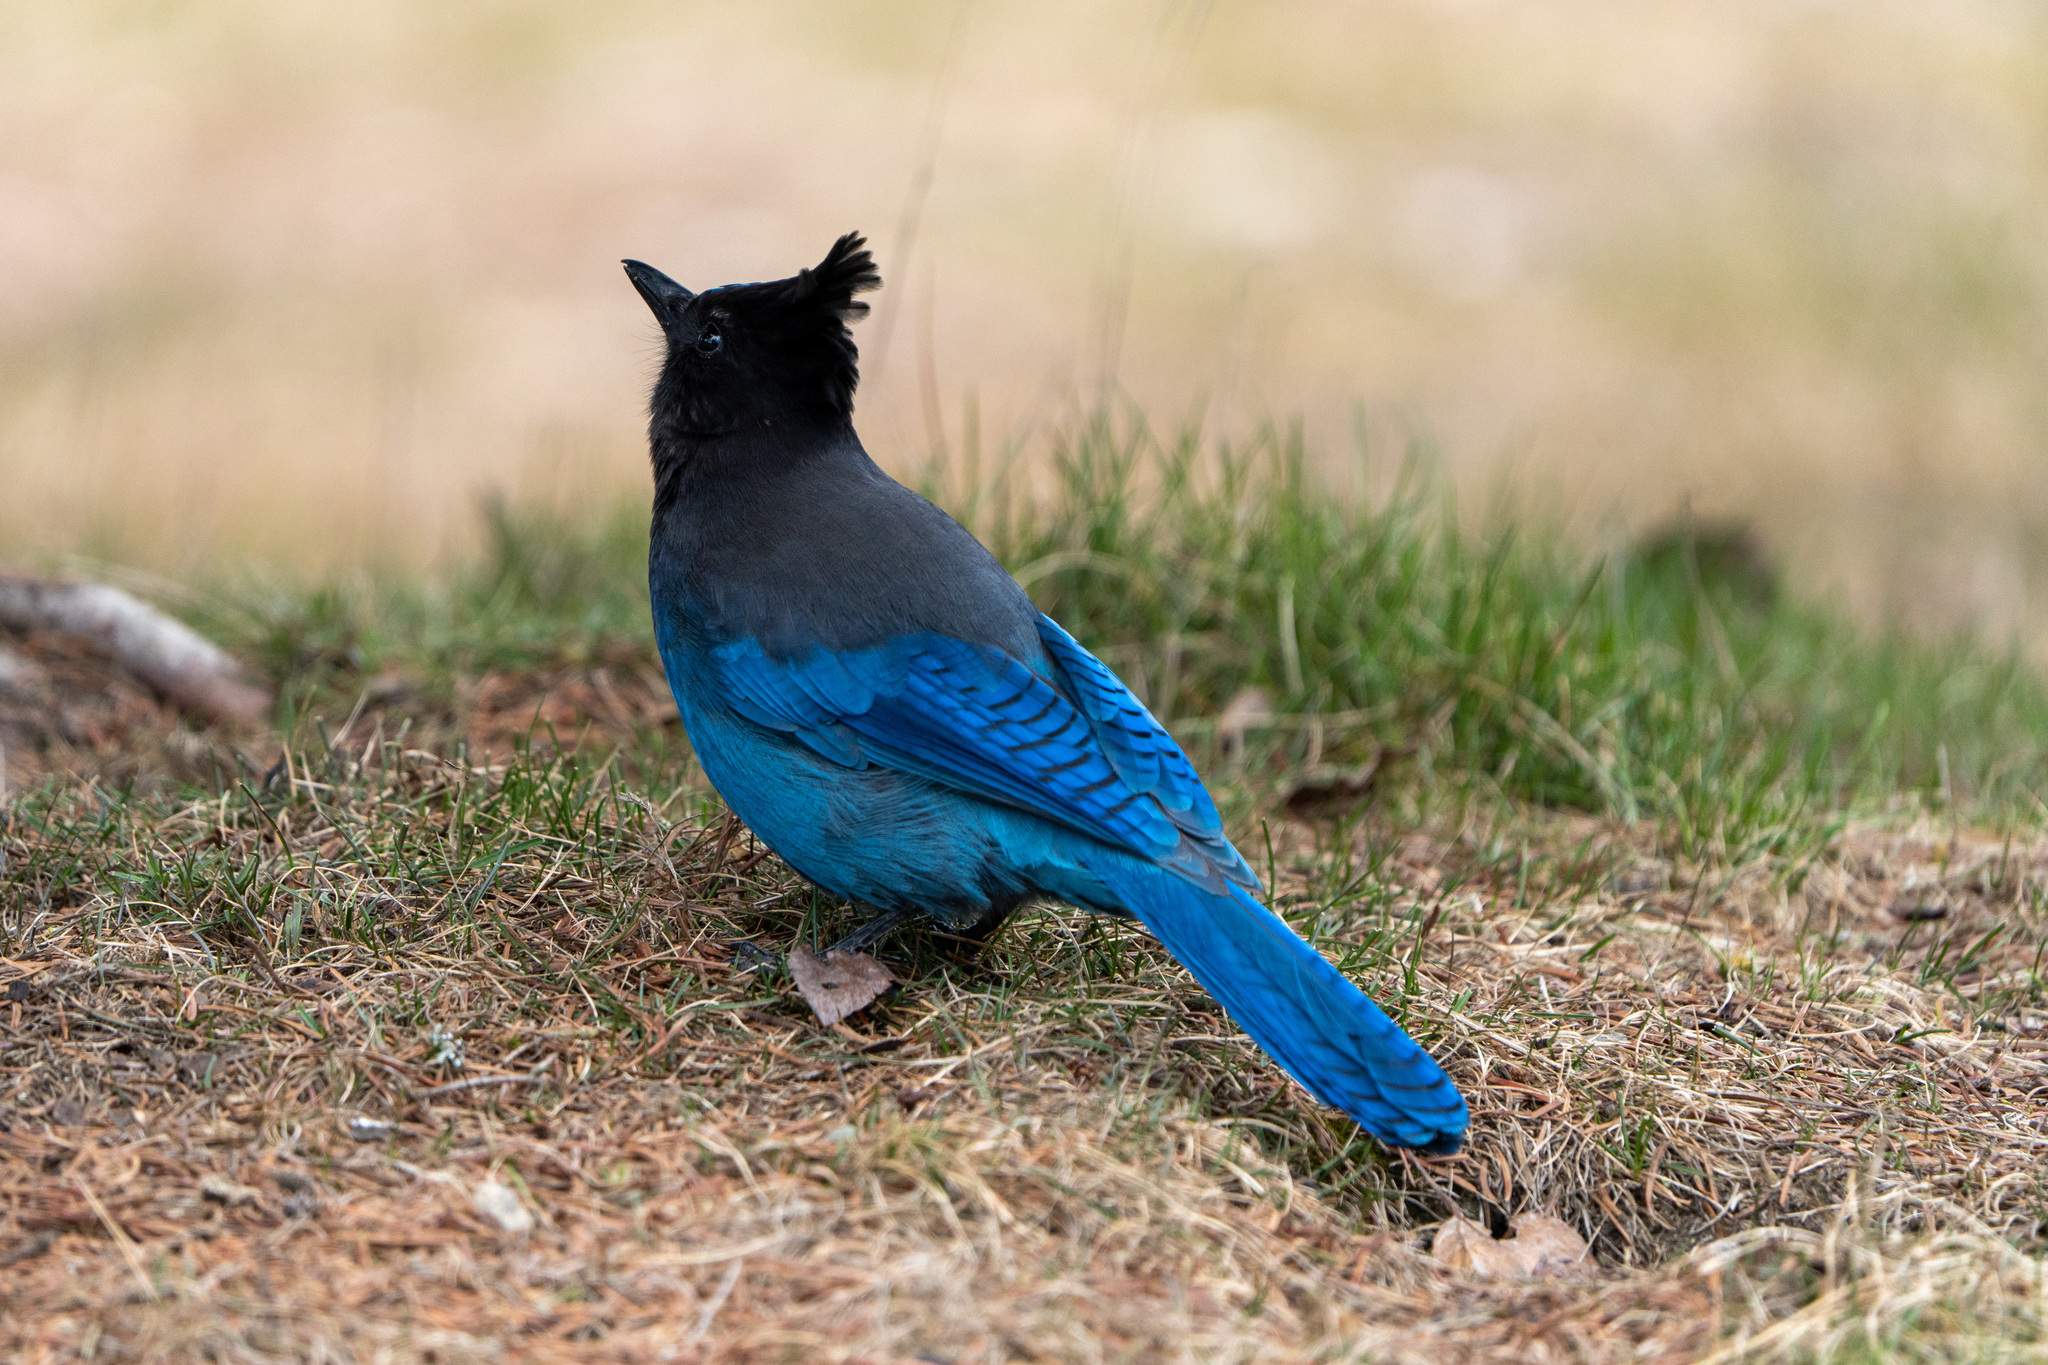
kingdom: Animalia
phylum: Chordata
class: Aves
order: Passeriformes
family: Corvidae
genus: Cyanocitta
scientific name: Cyanocitta stelleri
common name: Steller's jay
